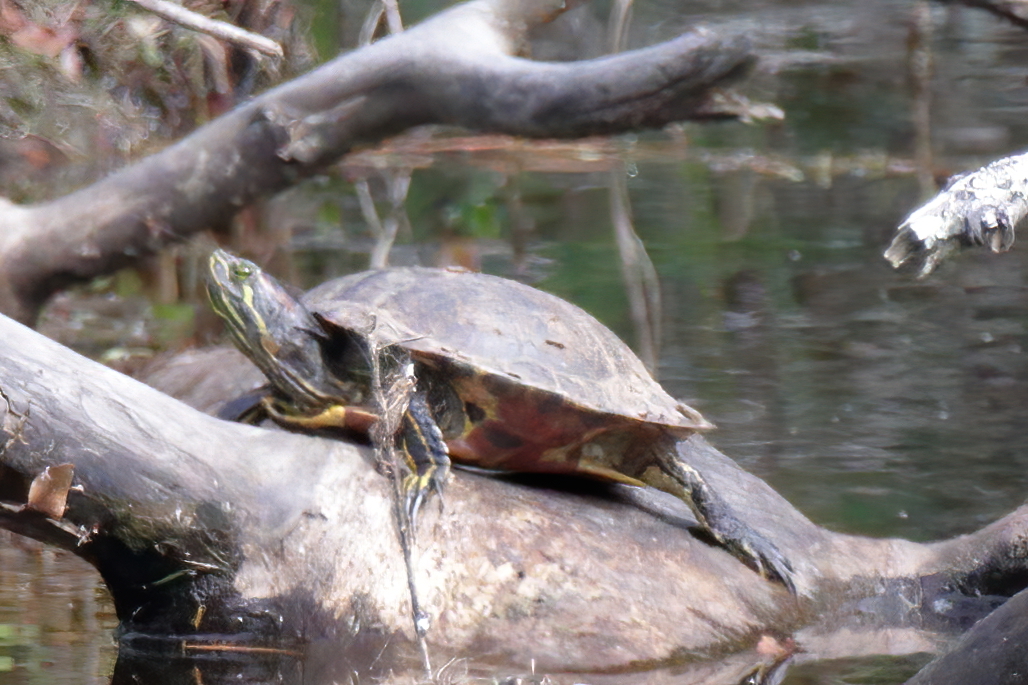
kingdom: Animalia
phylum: Chordata
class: Testudines
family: Emydidae
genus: Trachemys
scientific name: Trachemys scripta
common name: Slider
